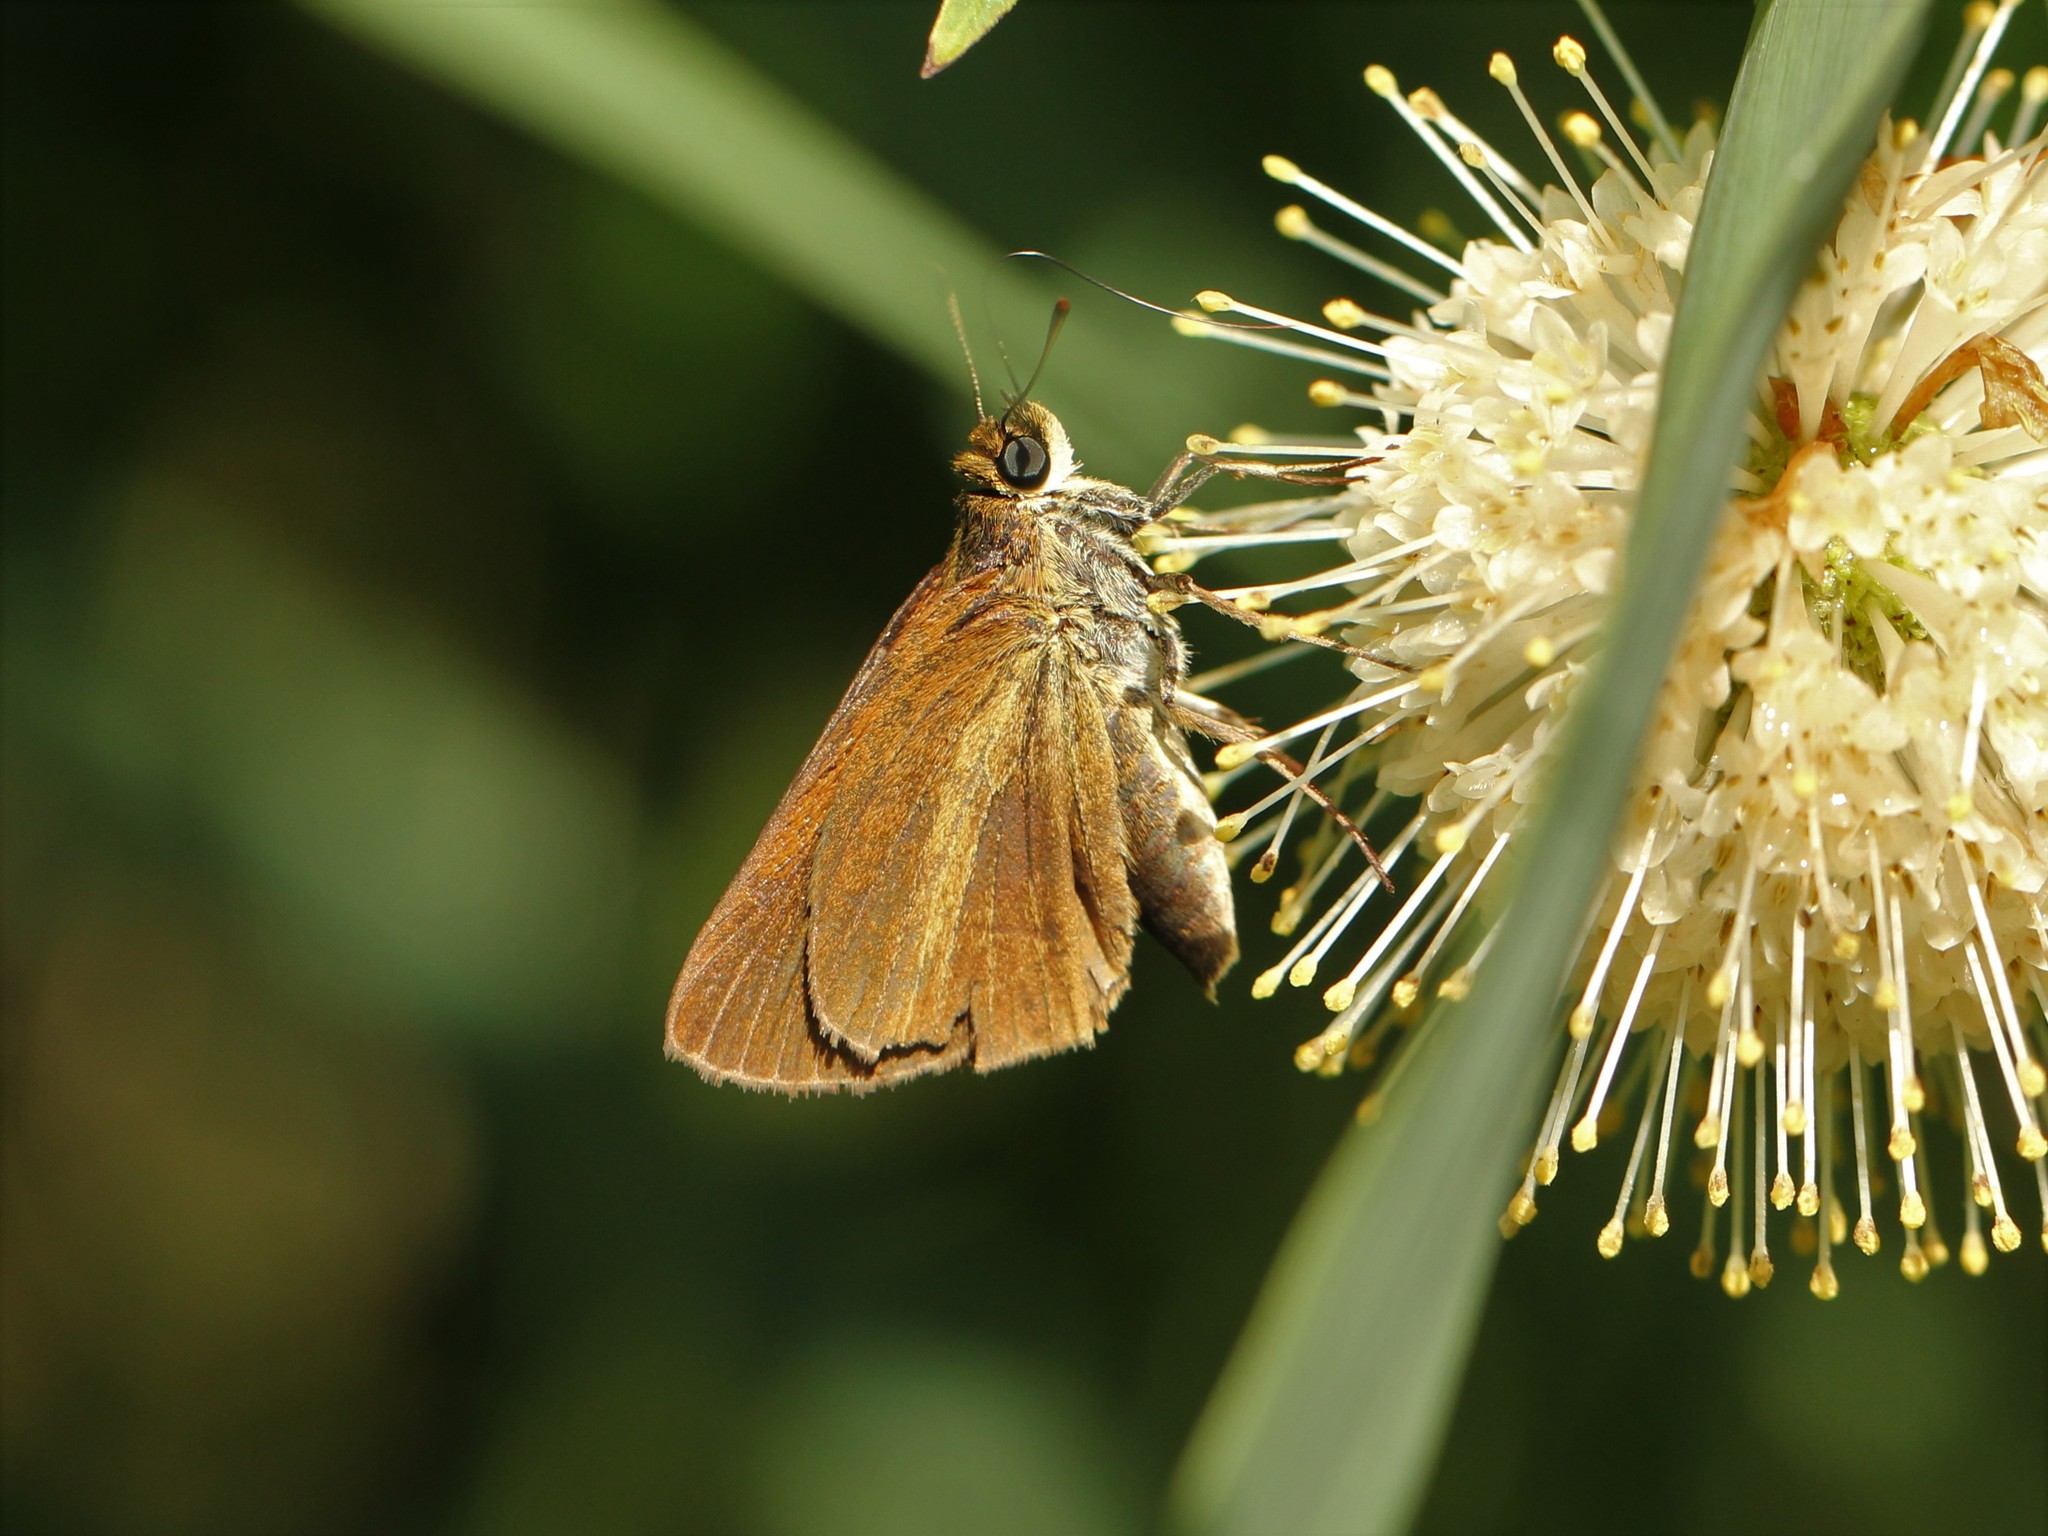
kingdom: Animalia
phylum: Arthropoda
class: Insecta
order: Lepidoptera
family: Hesperiidae
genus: Euphyes
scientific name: Euphyes dukesi
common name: Dukes' skipper
